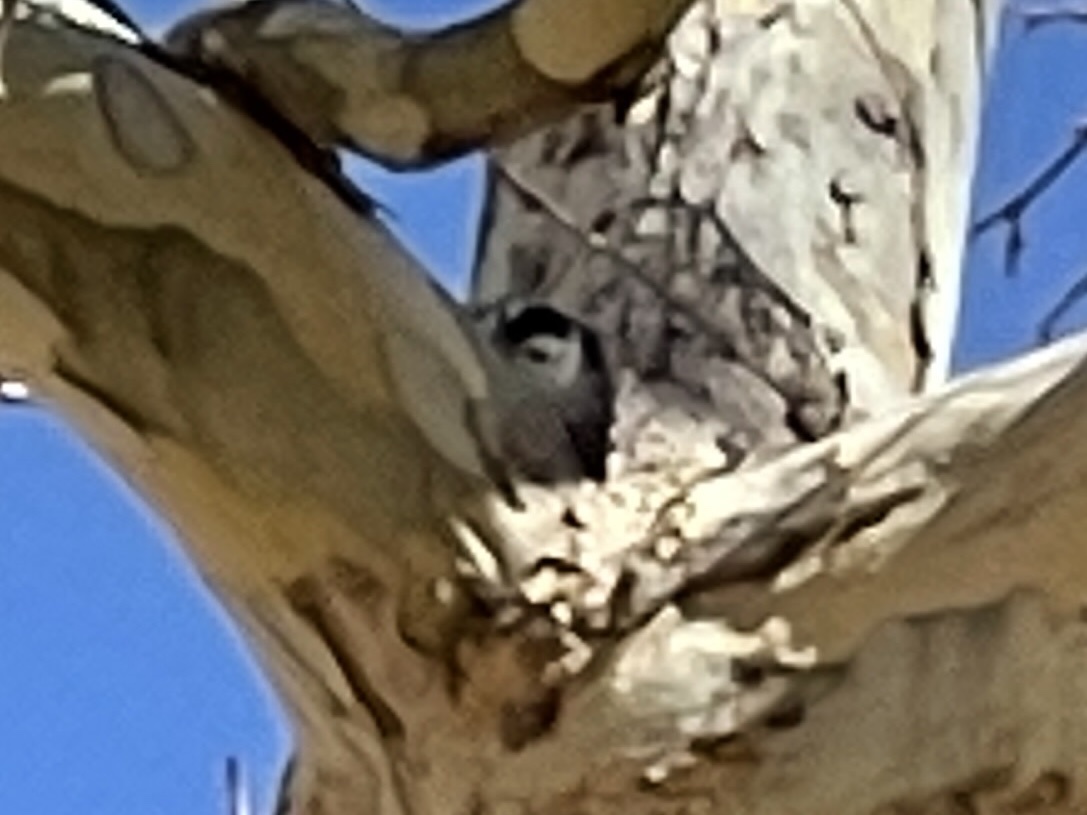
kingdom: Animalia
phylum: Chordata
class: Aves
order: Passeriformes
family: Sittidae
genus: Sitta
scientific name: Sitta pygmaea
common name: Pygmy nuthatch
